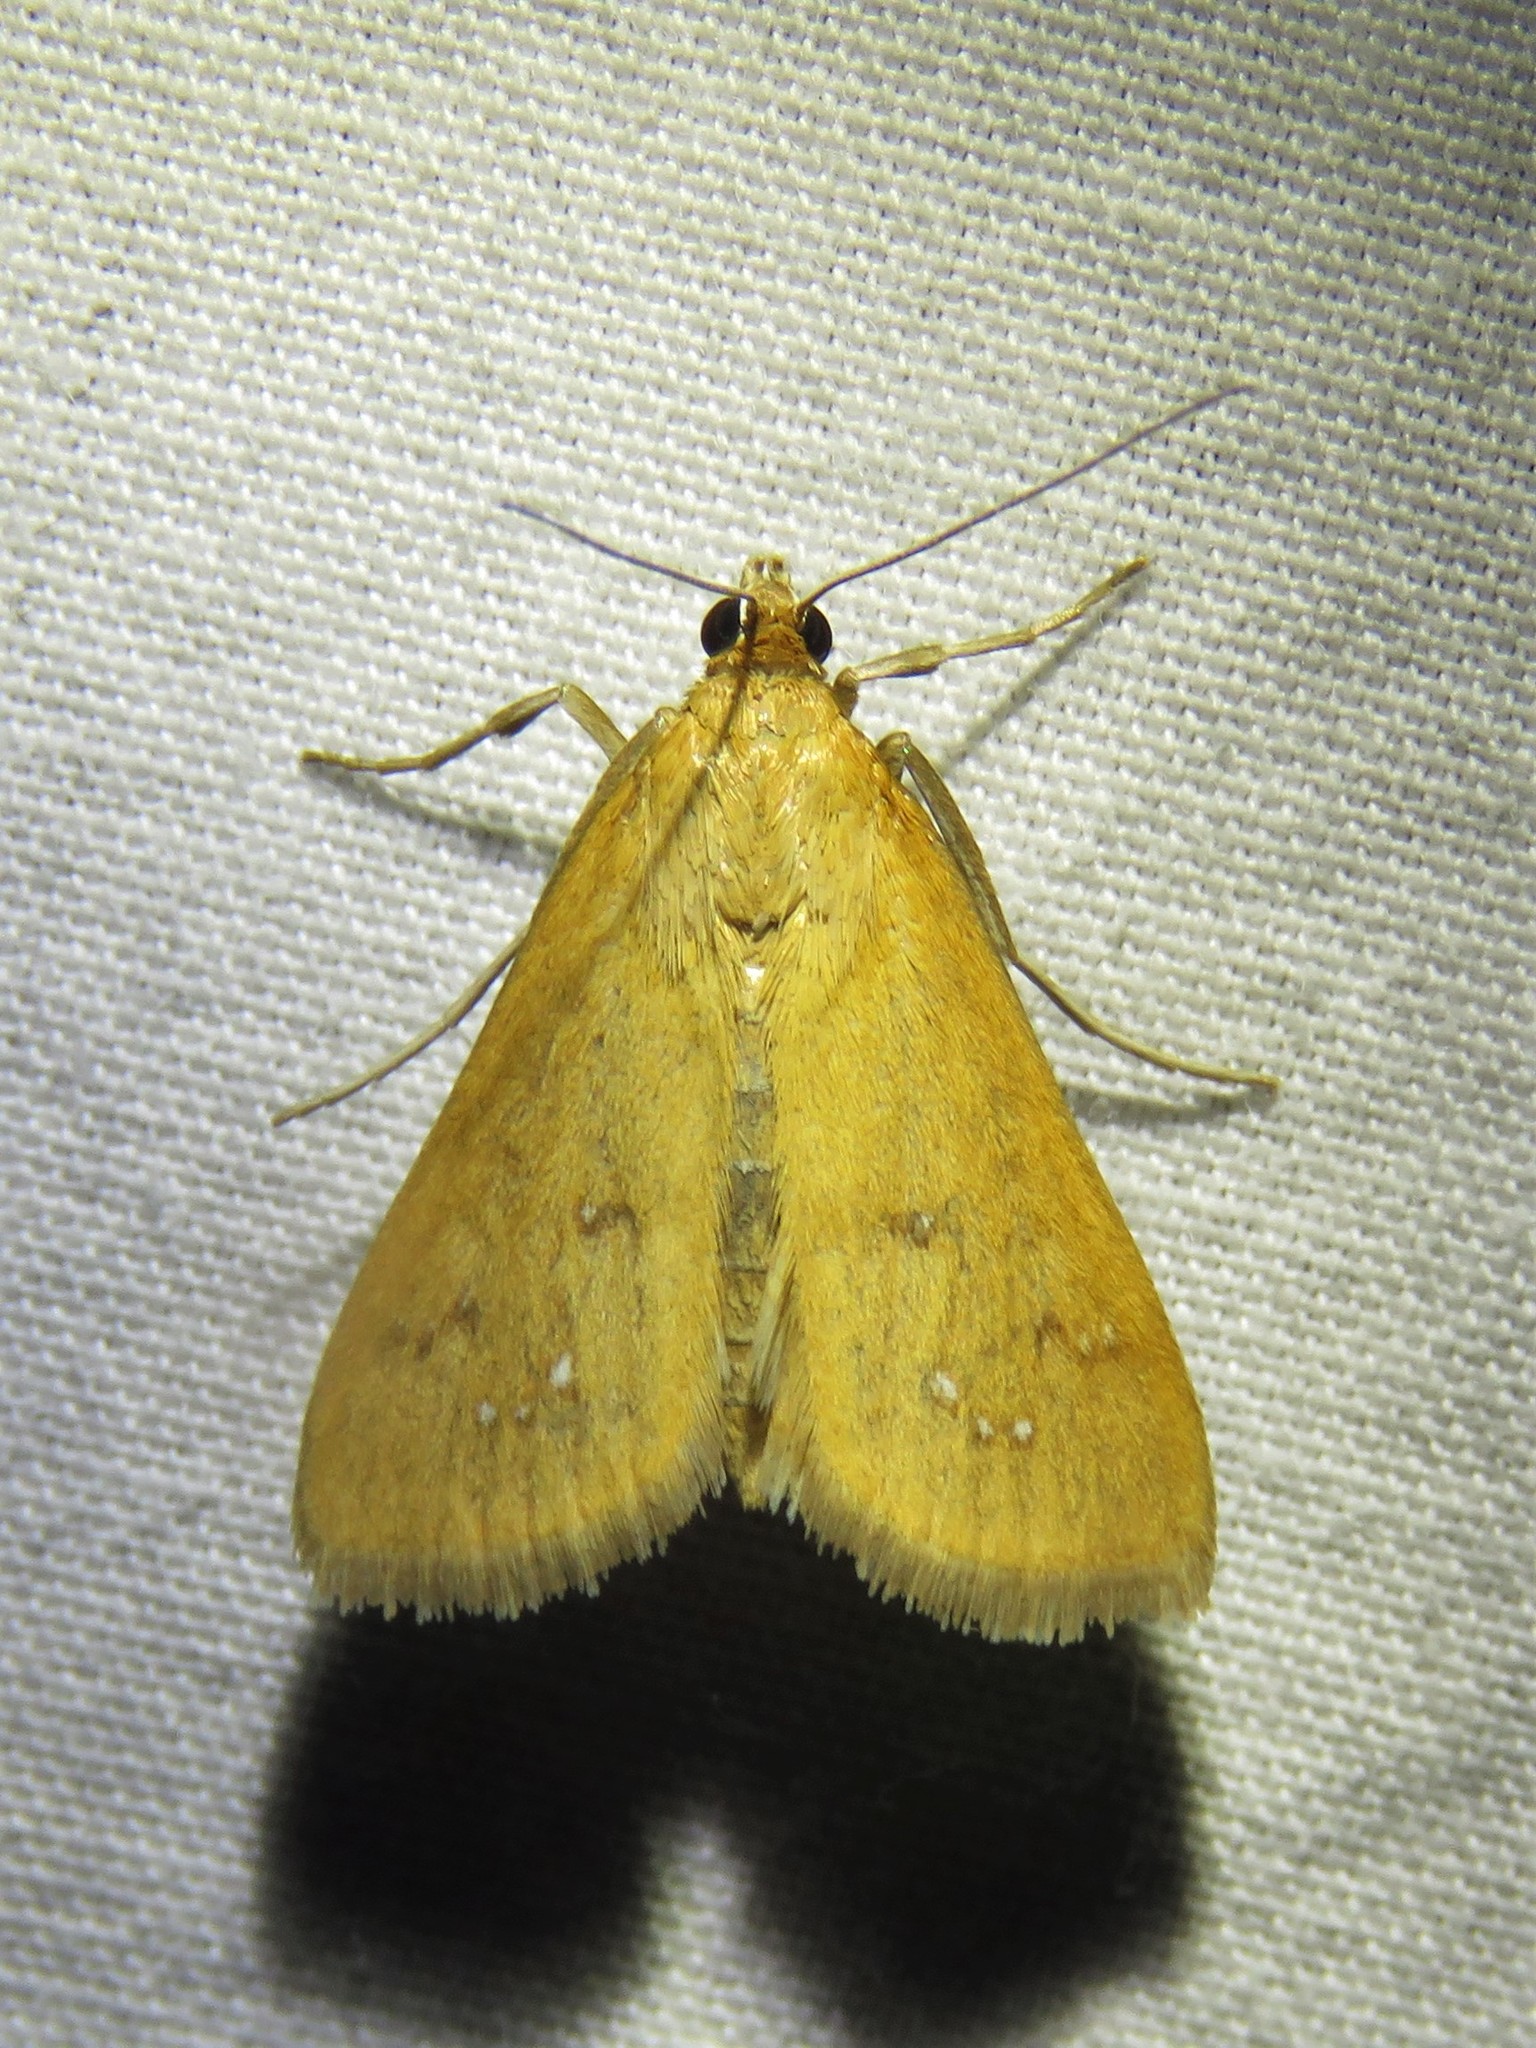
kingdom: Animalia
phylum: Arthropoda
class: Insecta
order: Lepidoptera
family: Crambidae
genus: Diastictis
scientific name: Diastictis ventralis
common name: White-spotted brown
